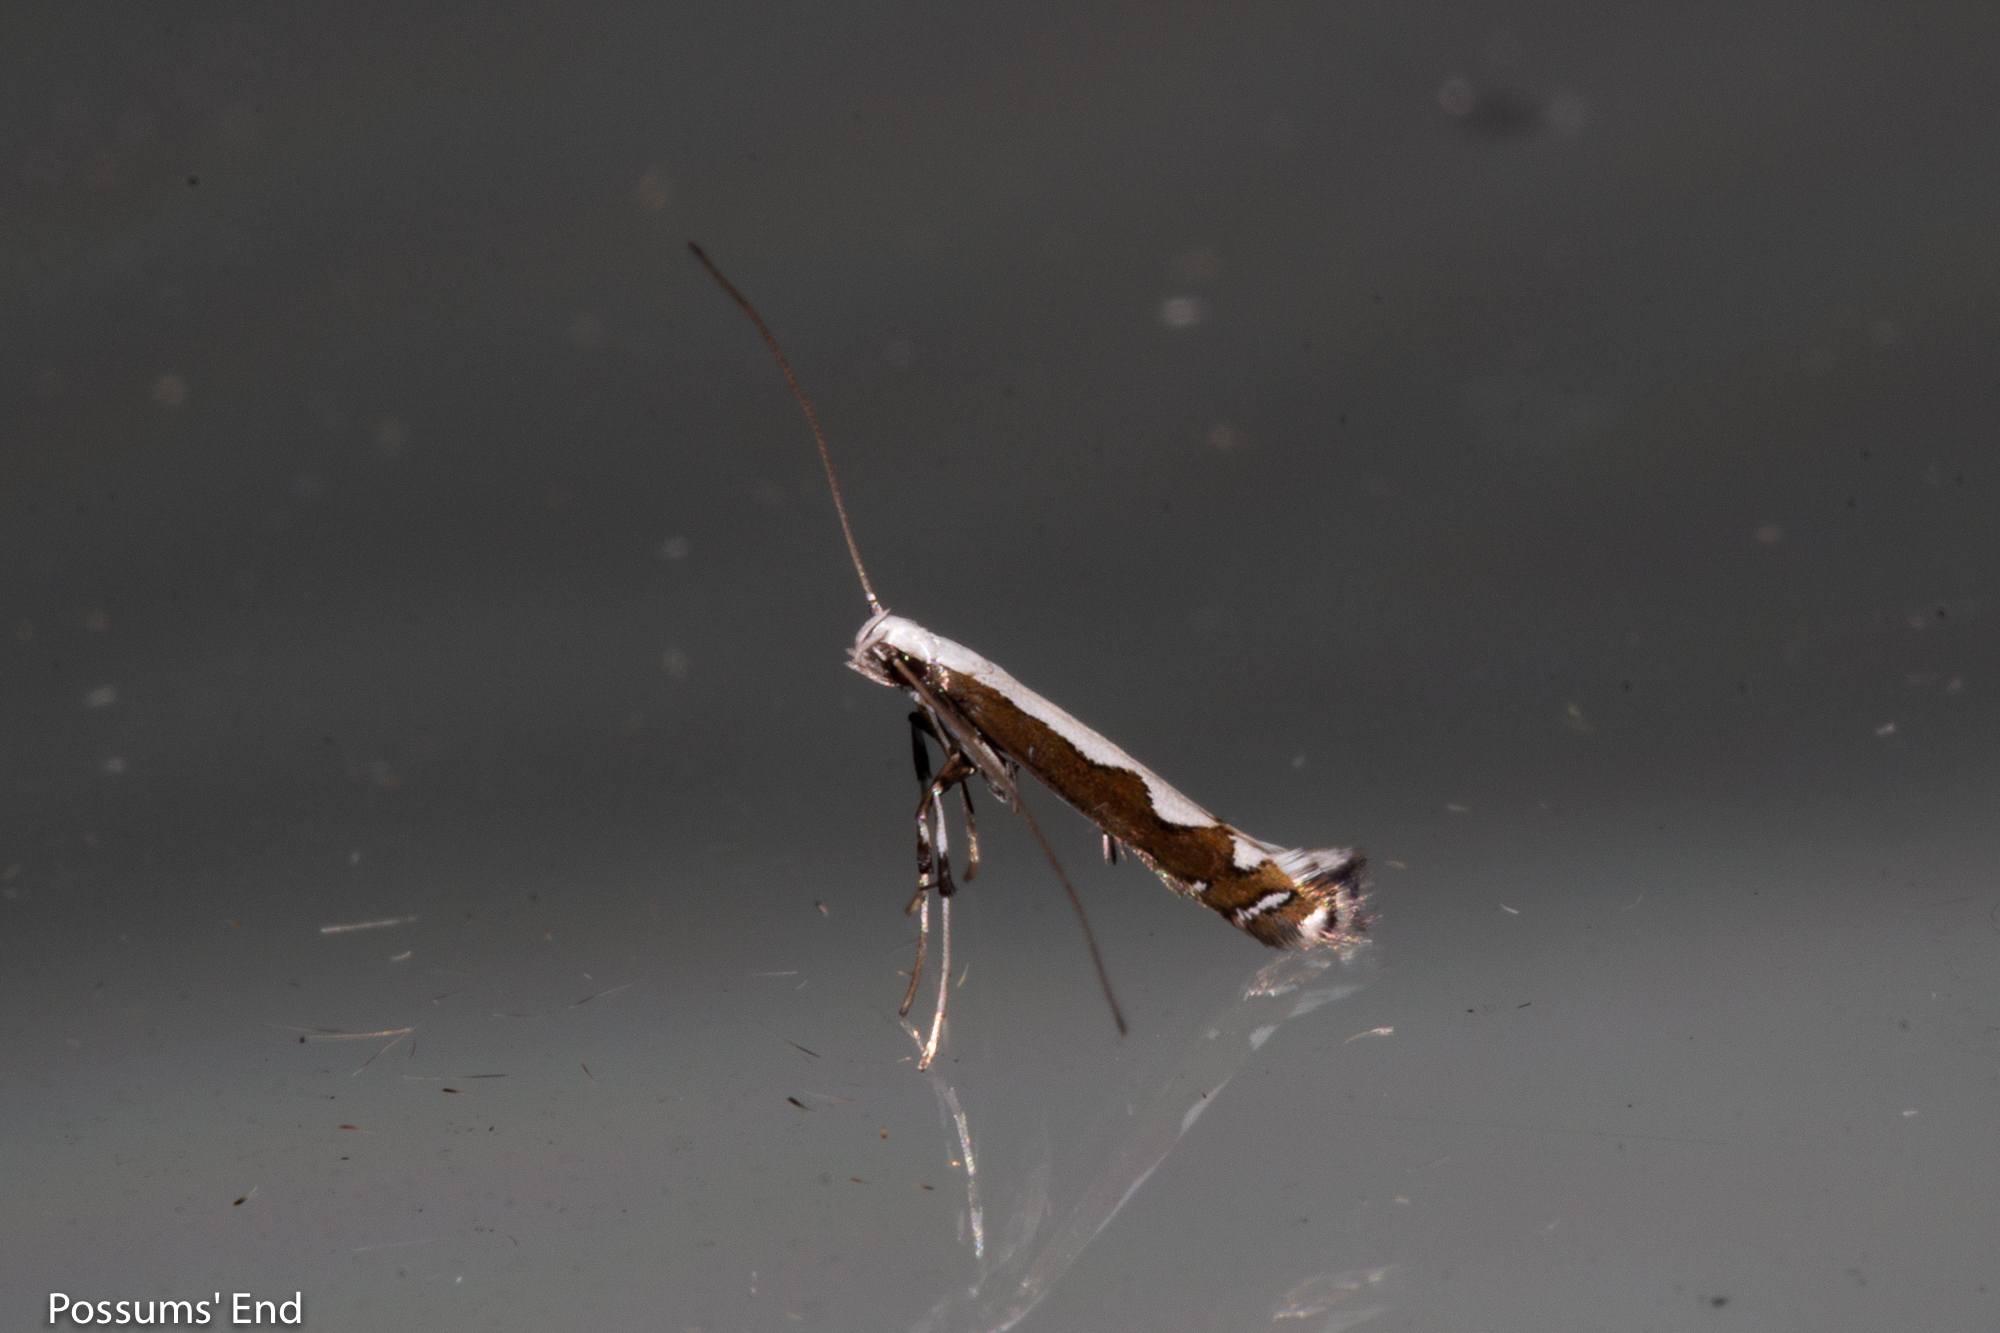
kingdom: Animalia
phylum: Arthropoda
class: Insecta
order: Lepidoptera
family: Gracillariidae
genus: Dialectica
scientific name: Dialectica scalariella
